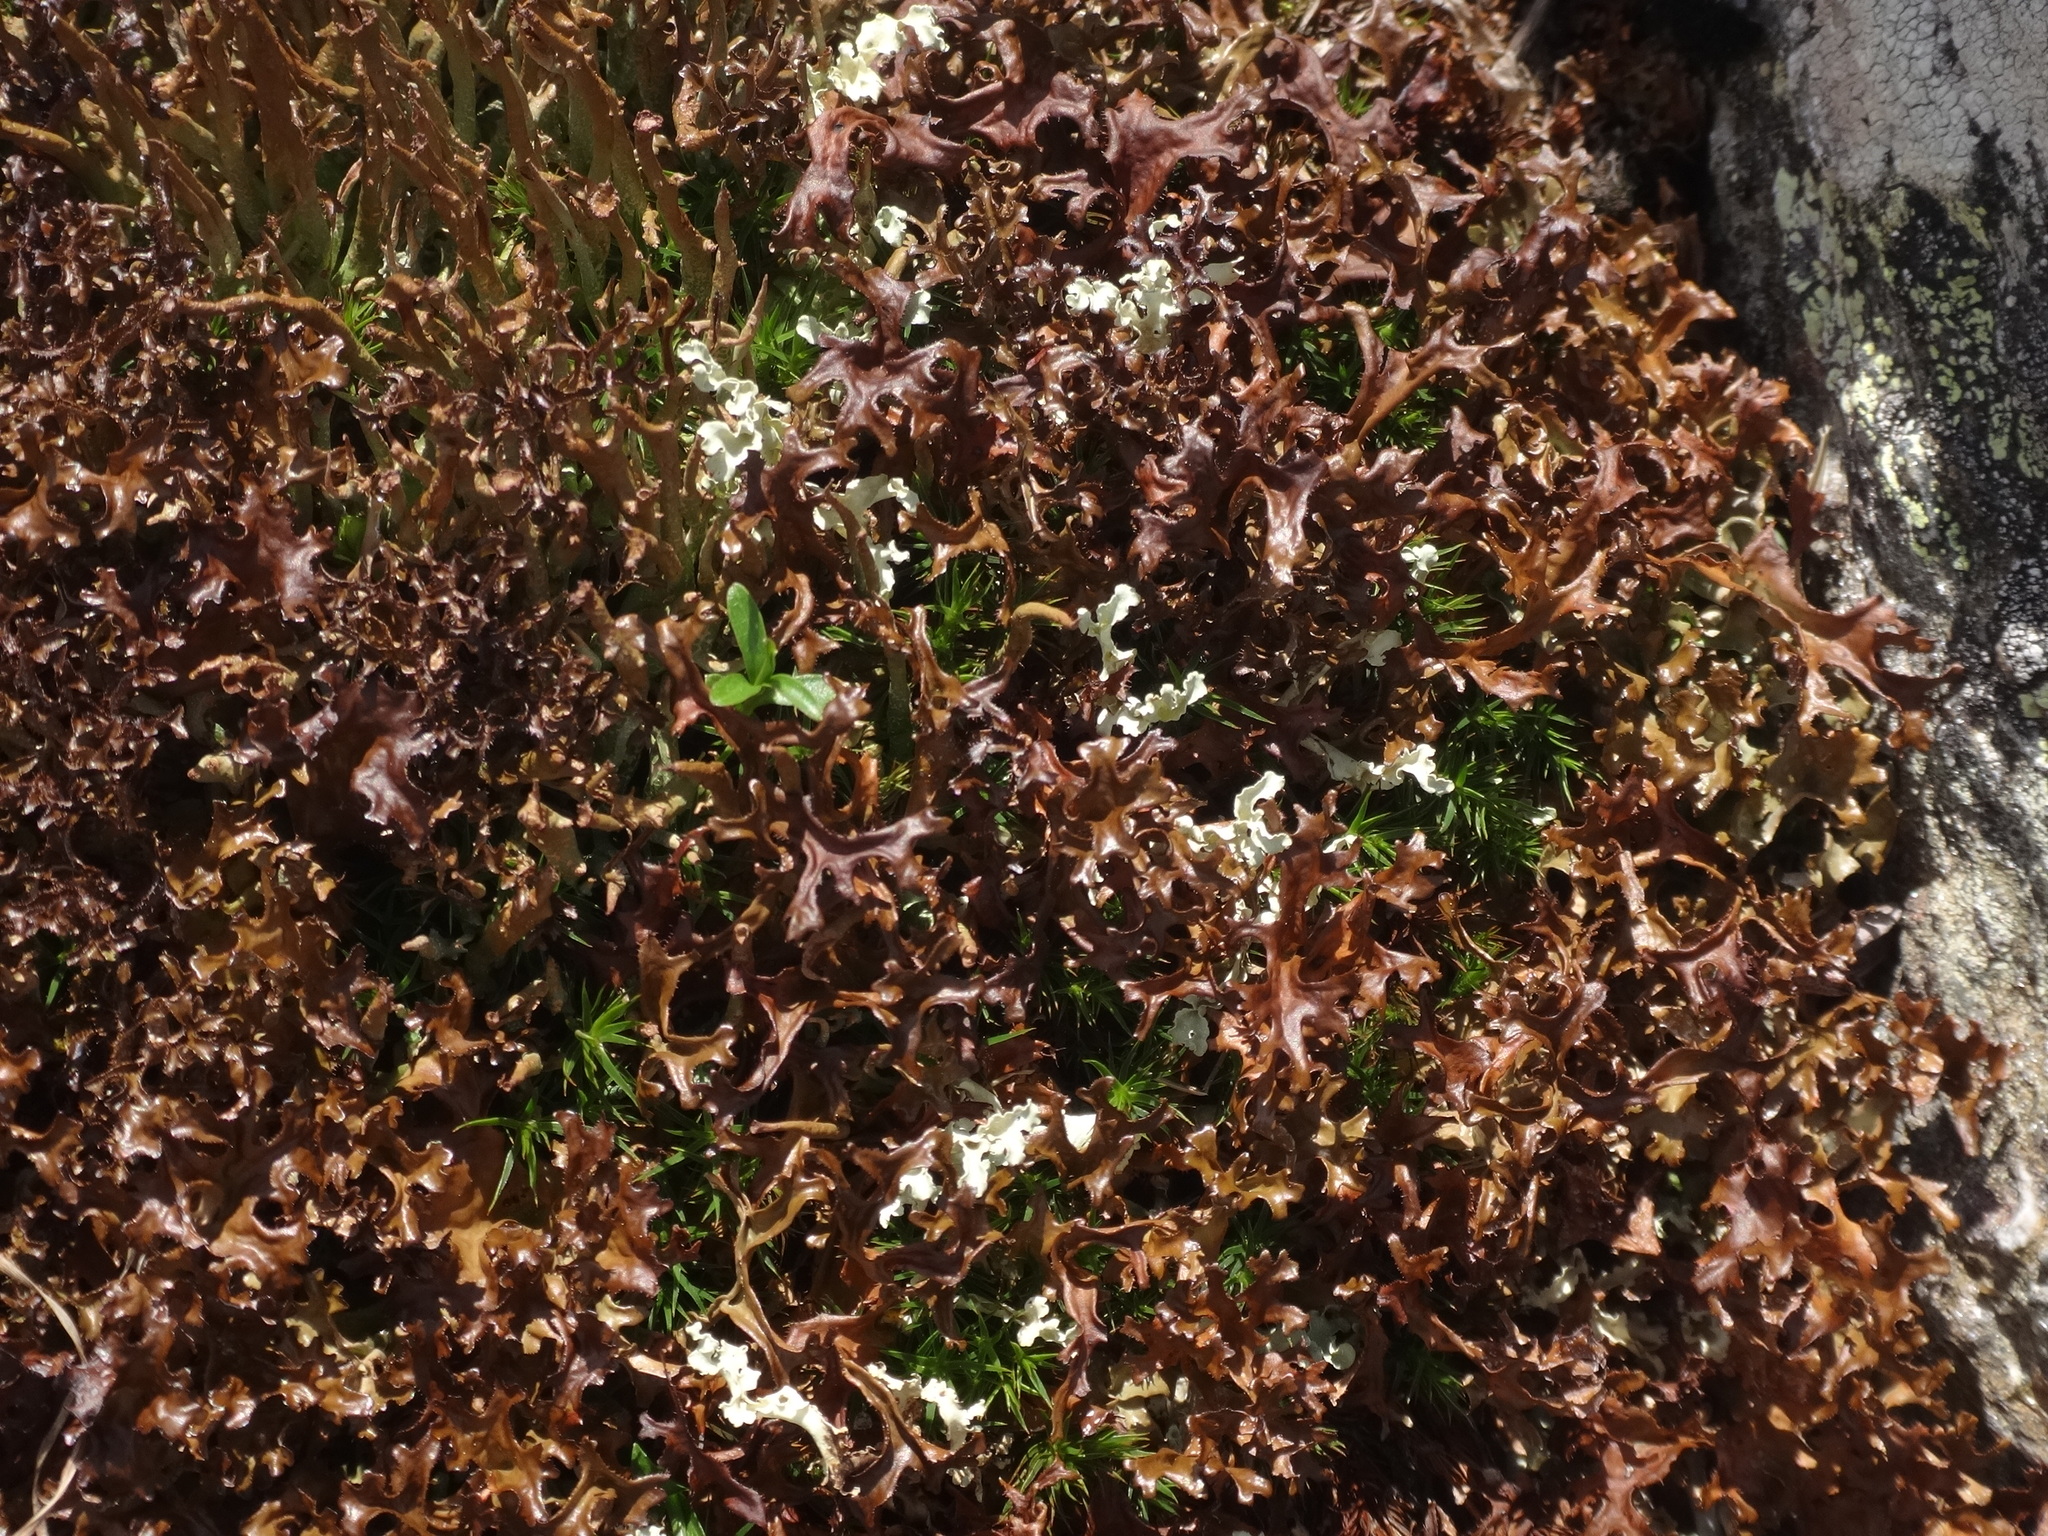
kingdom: Fungi
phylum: Ascomycota
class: Lecanoromycetes
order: Lecanorales
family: Parmeliaceae
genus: Cetraria
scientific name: Cetraria islandica
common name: Iceland lichen
